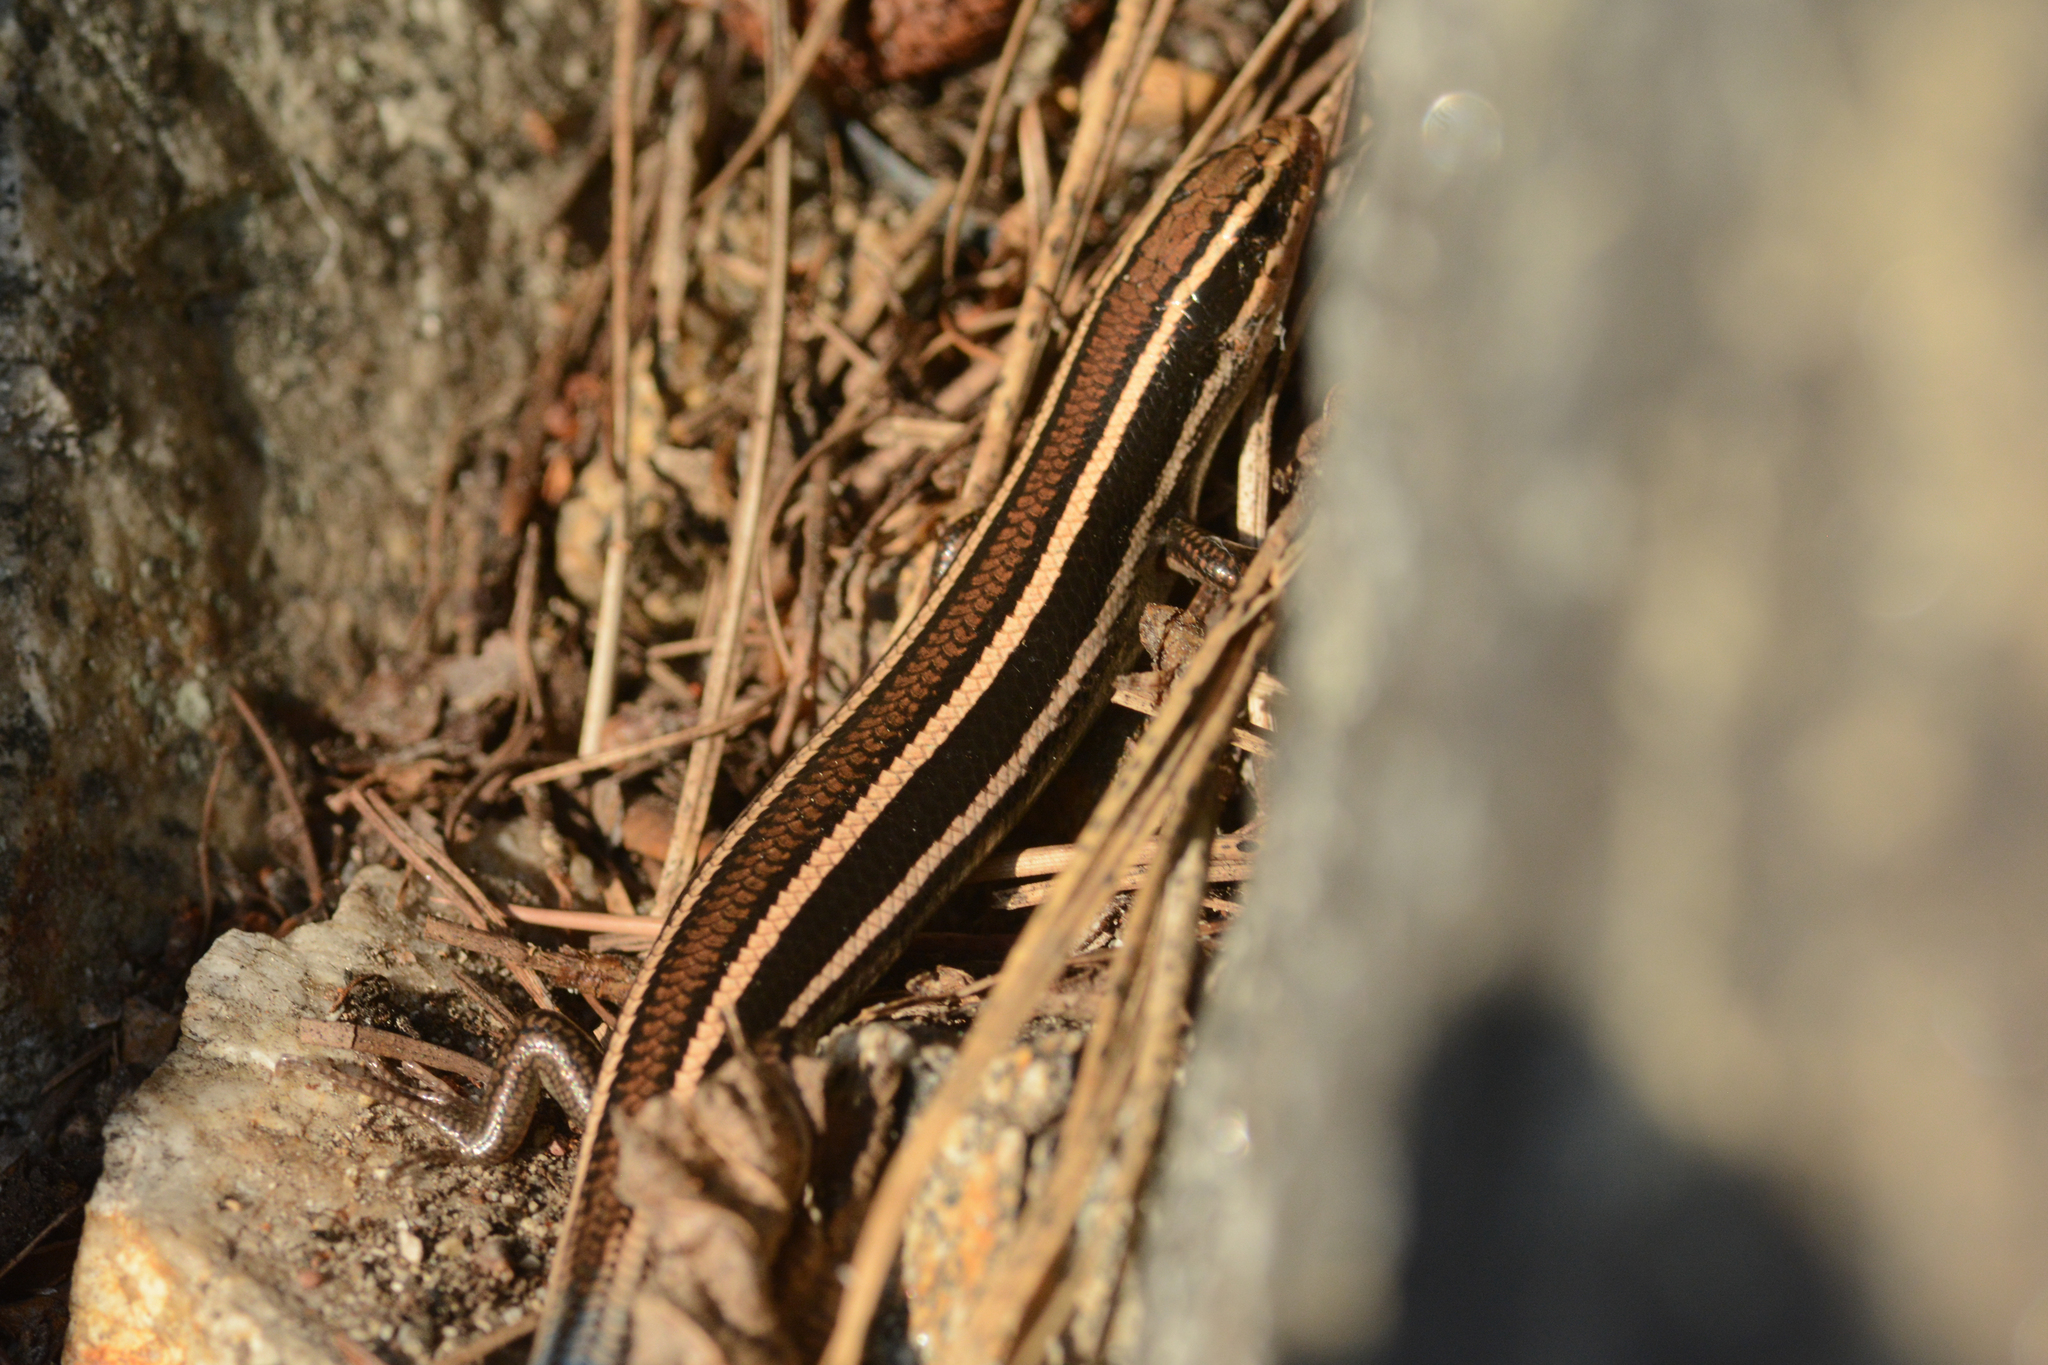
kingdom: Animalia
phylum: Chordata
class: Squamata
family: Scincidae
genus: Plestiodon
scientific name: Plestiodon skiltonianus
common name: Coronado island skink [interparietalis]
